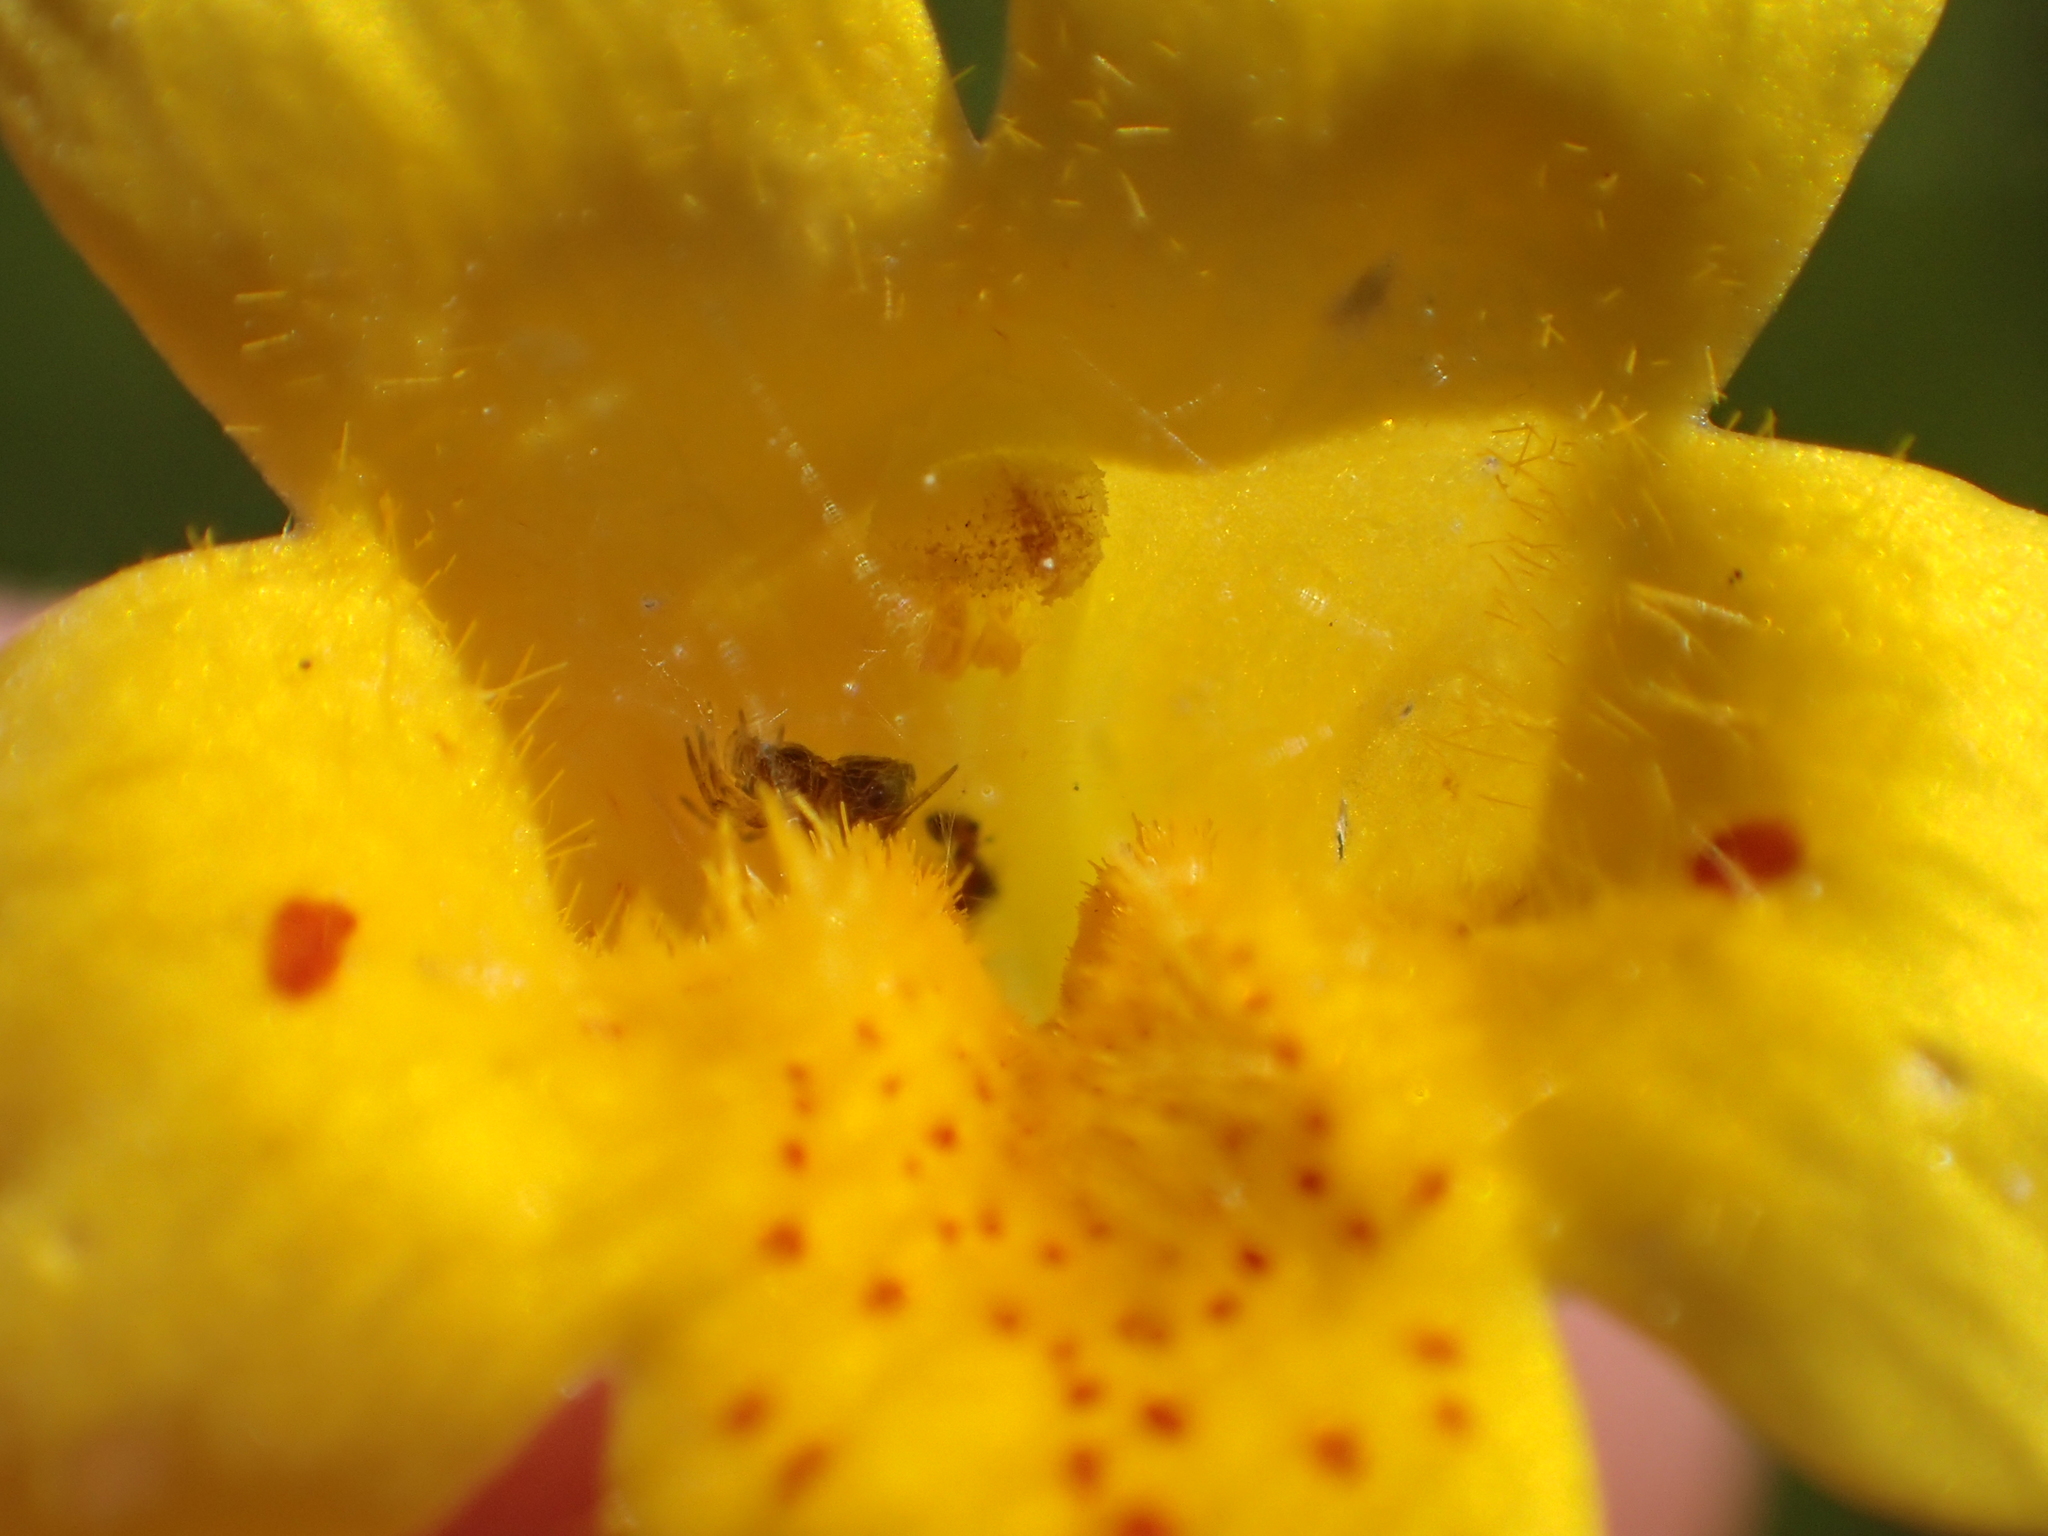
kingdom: Plantae
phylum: Tracheophyta
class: Magnoliopsida
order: Lamiales
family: Phrymaceae
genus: Erythranthe
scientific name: Erythranthe linearifolia
